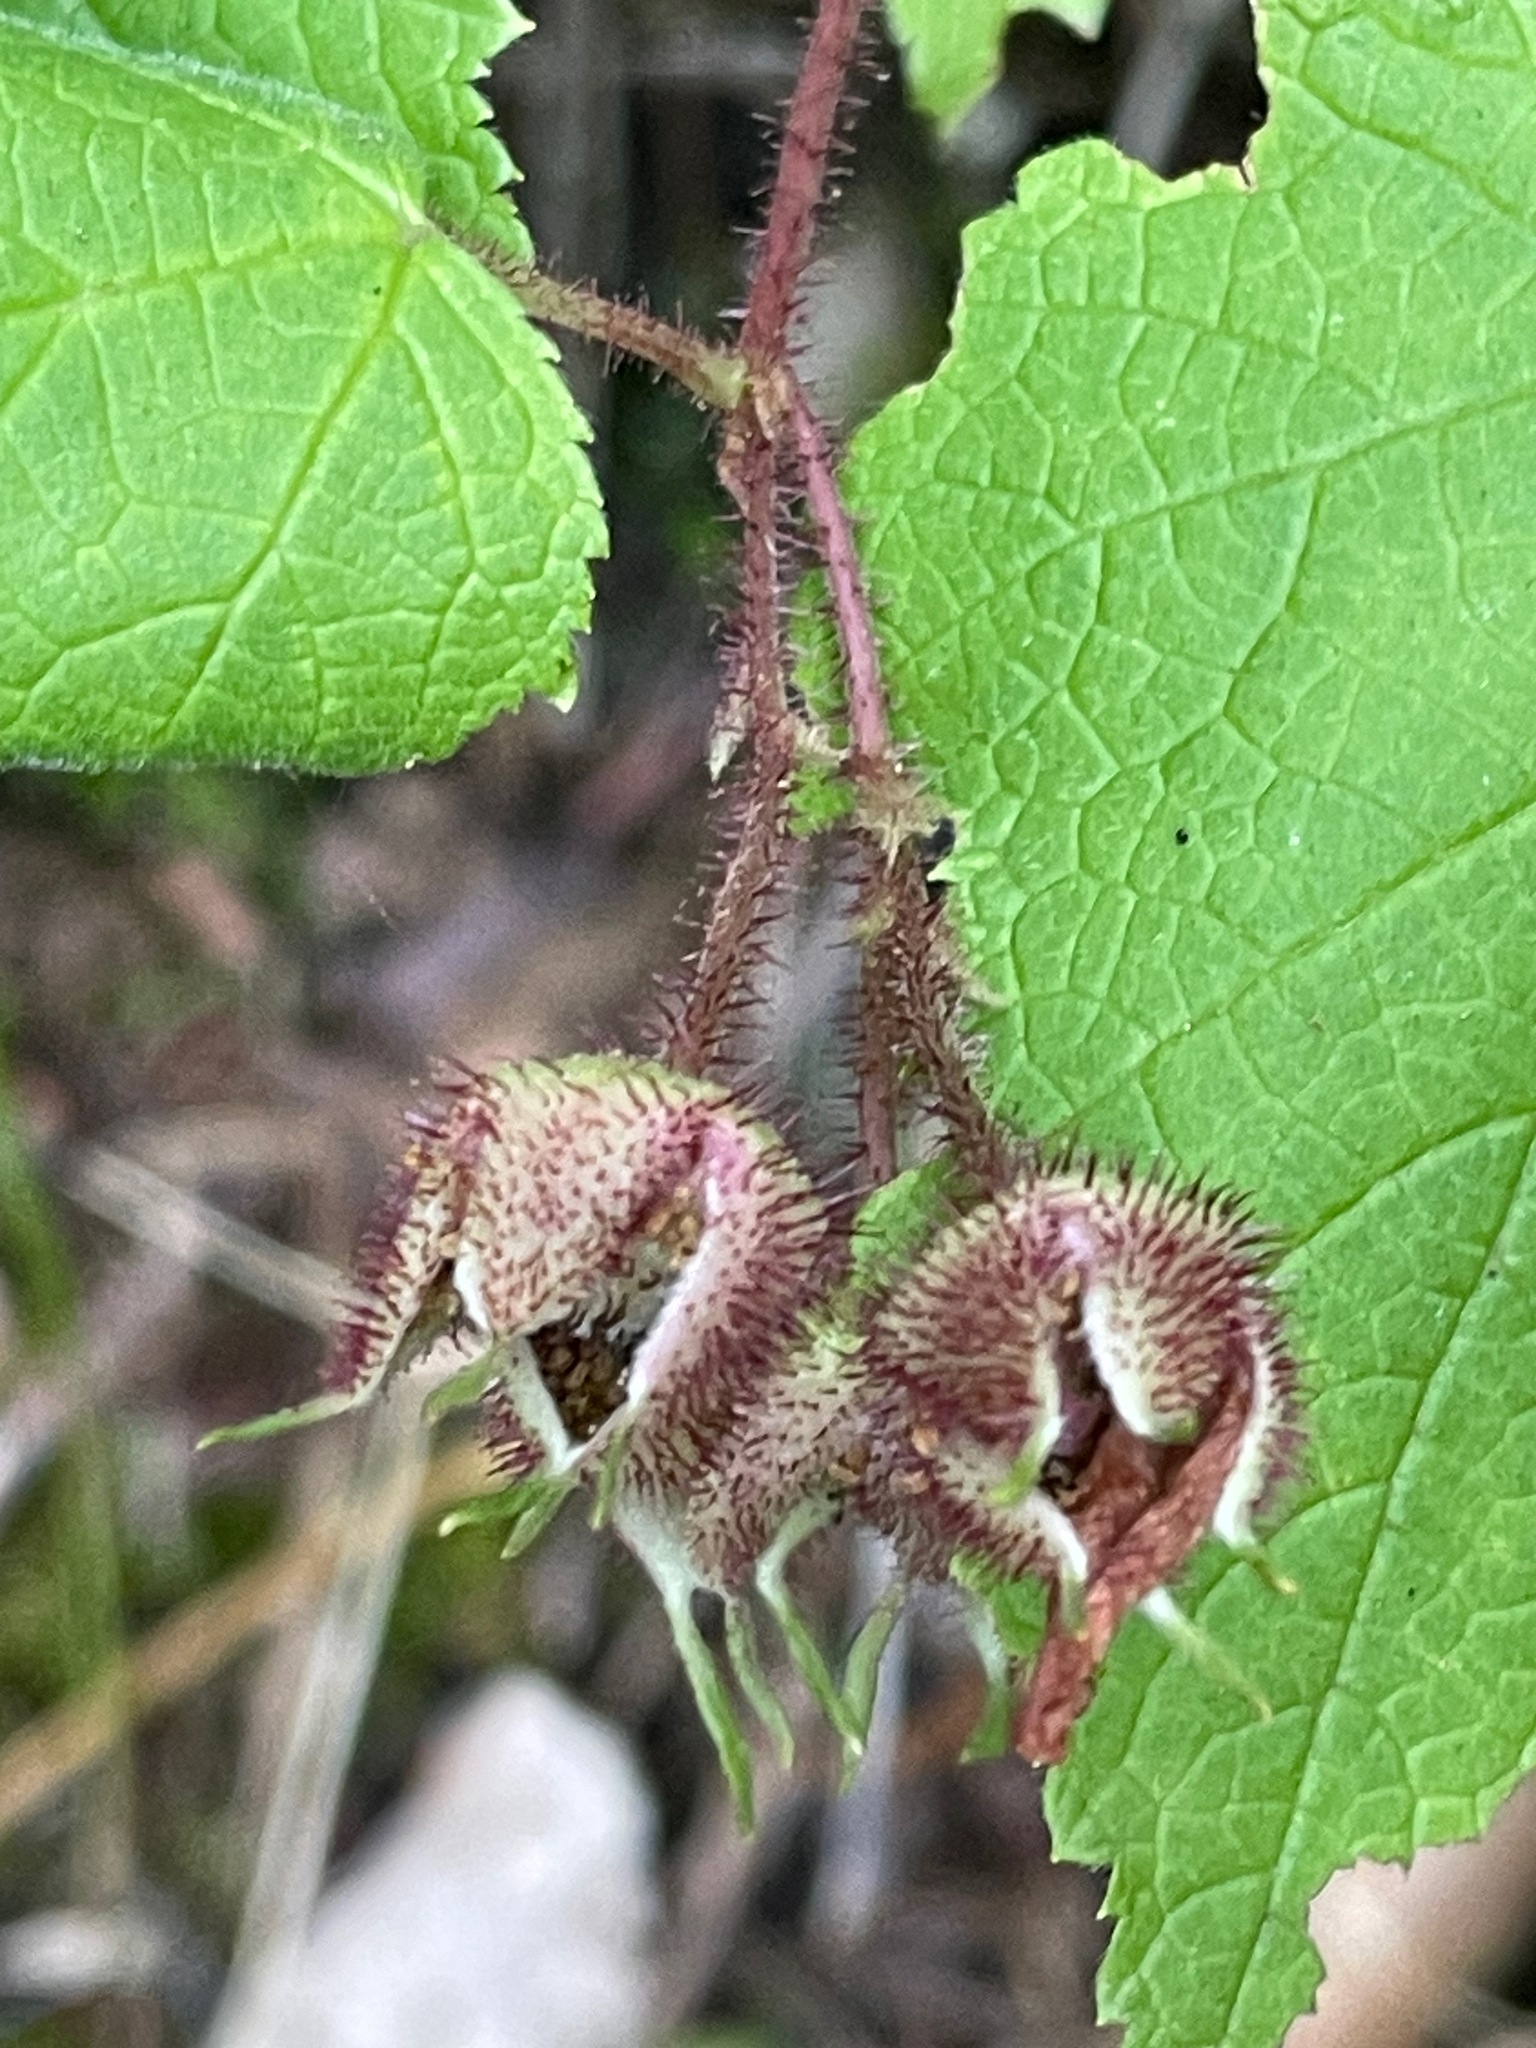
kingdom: Plantae
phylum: Tracheophyta
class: Magnoliopsida
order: Rosales
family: Rosaceae
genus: Rubus
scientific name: Rubus odoratus
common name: Purple-flowered raspberry
